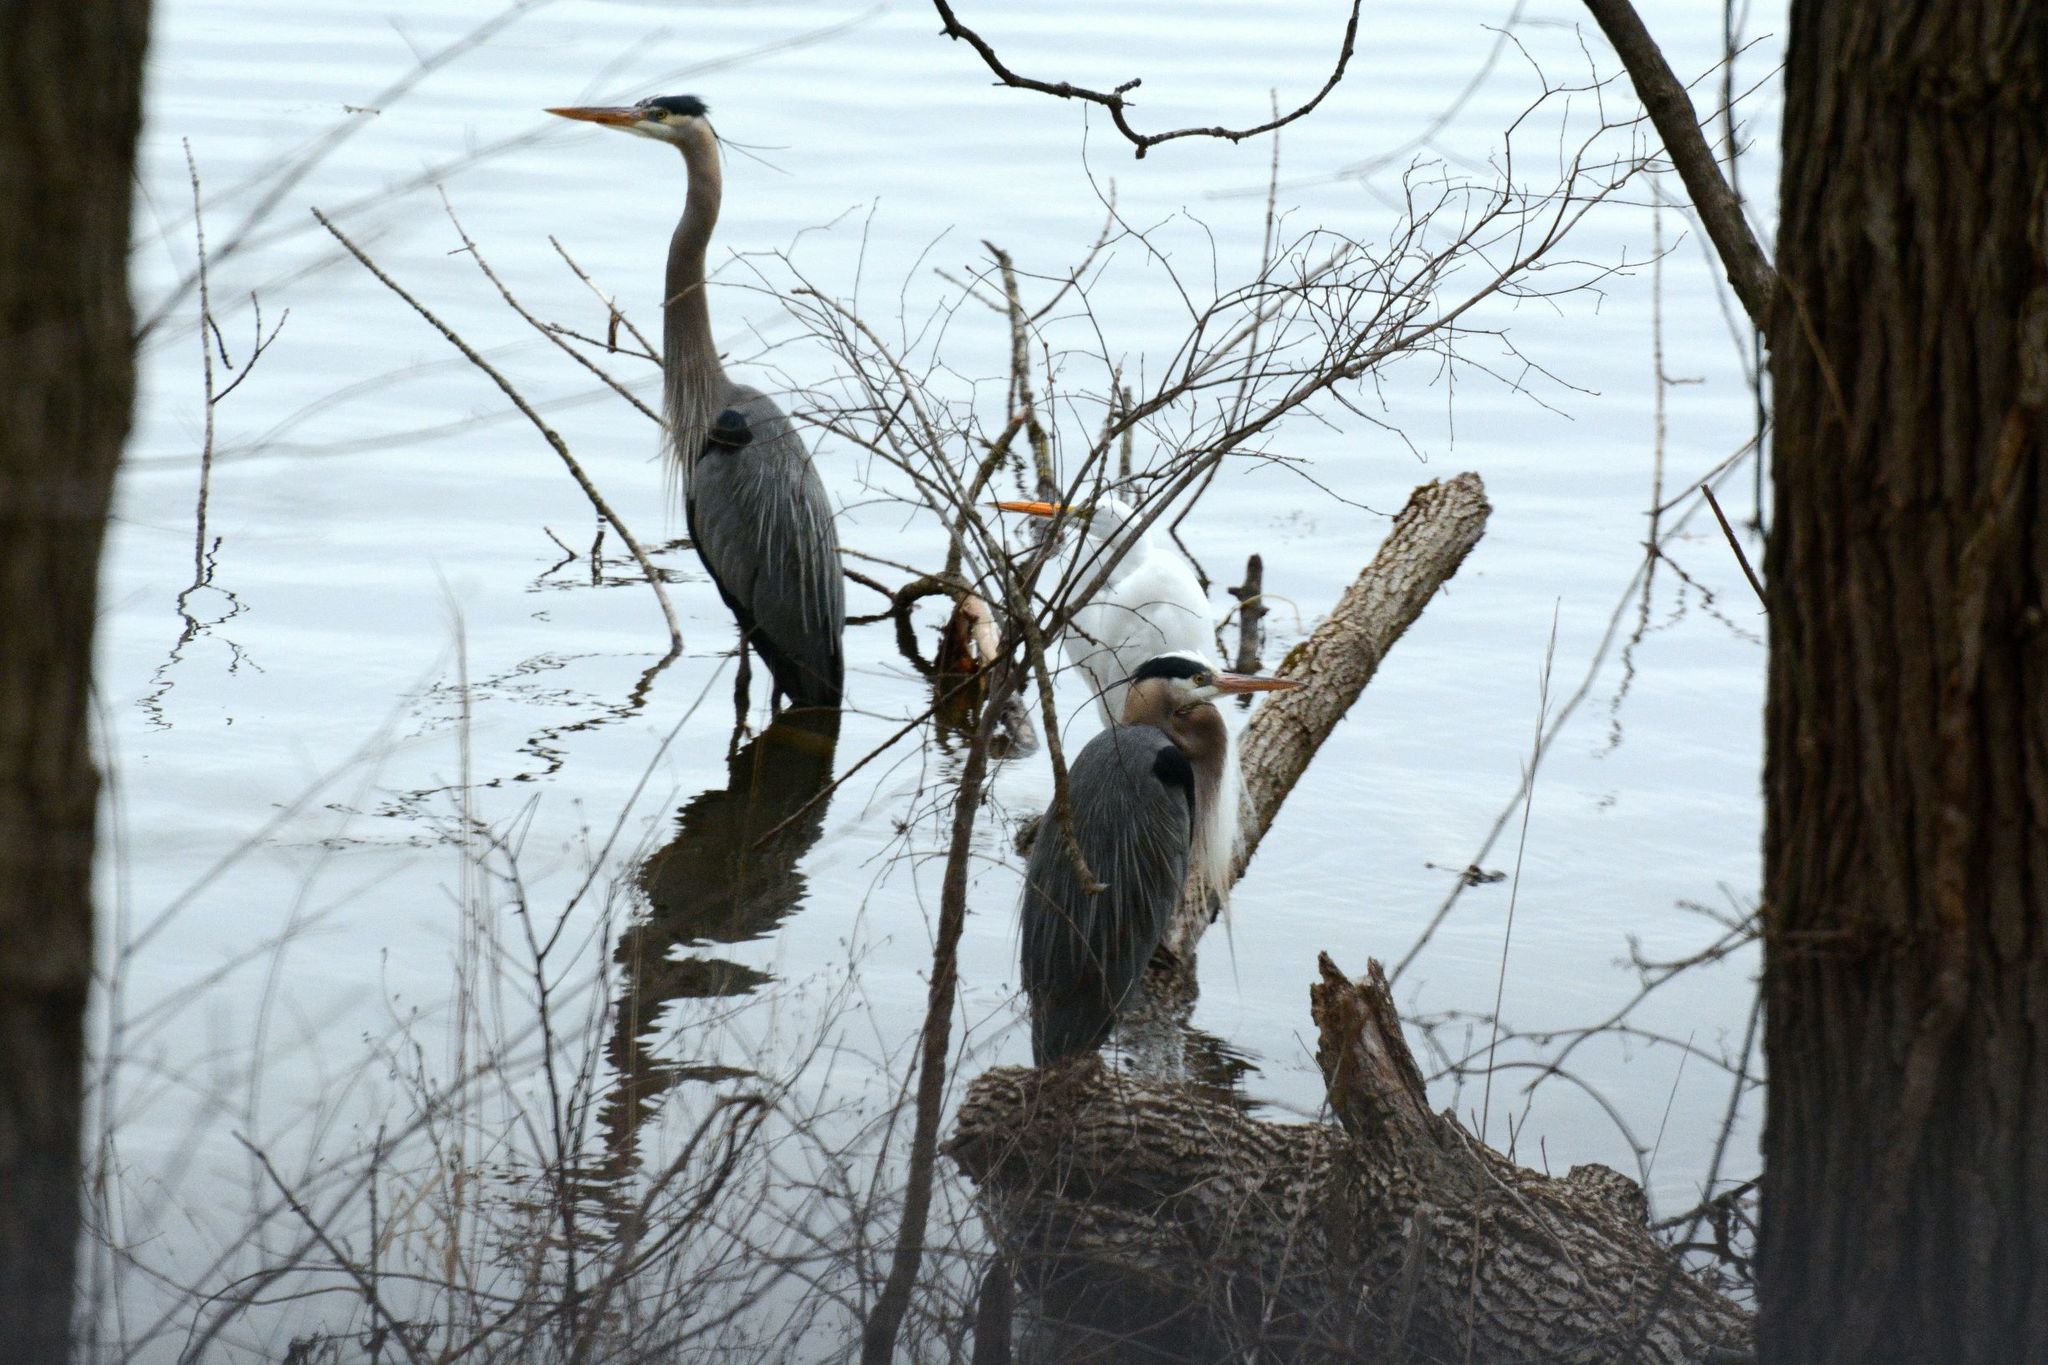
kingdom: Animalia
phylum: Chordata
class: Aves
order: Pelecaniformes
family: Ardeidae
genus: Ardea
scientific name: Ardea herodias
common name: Great blue heron
